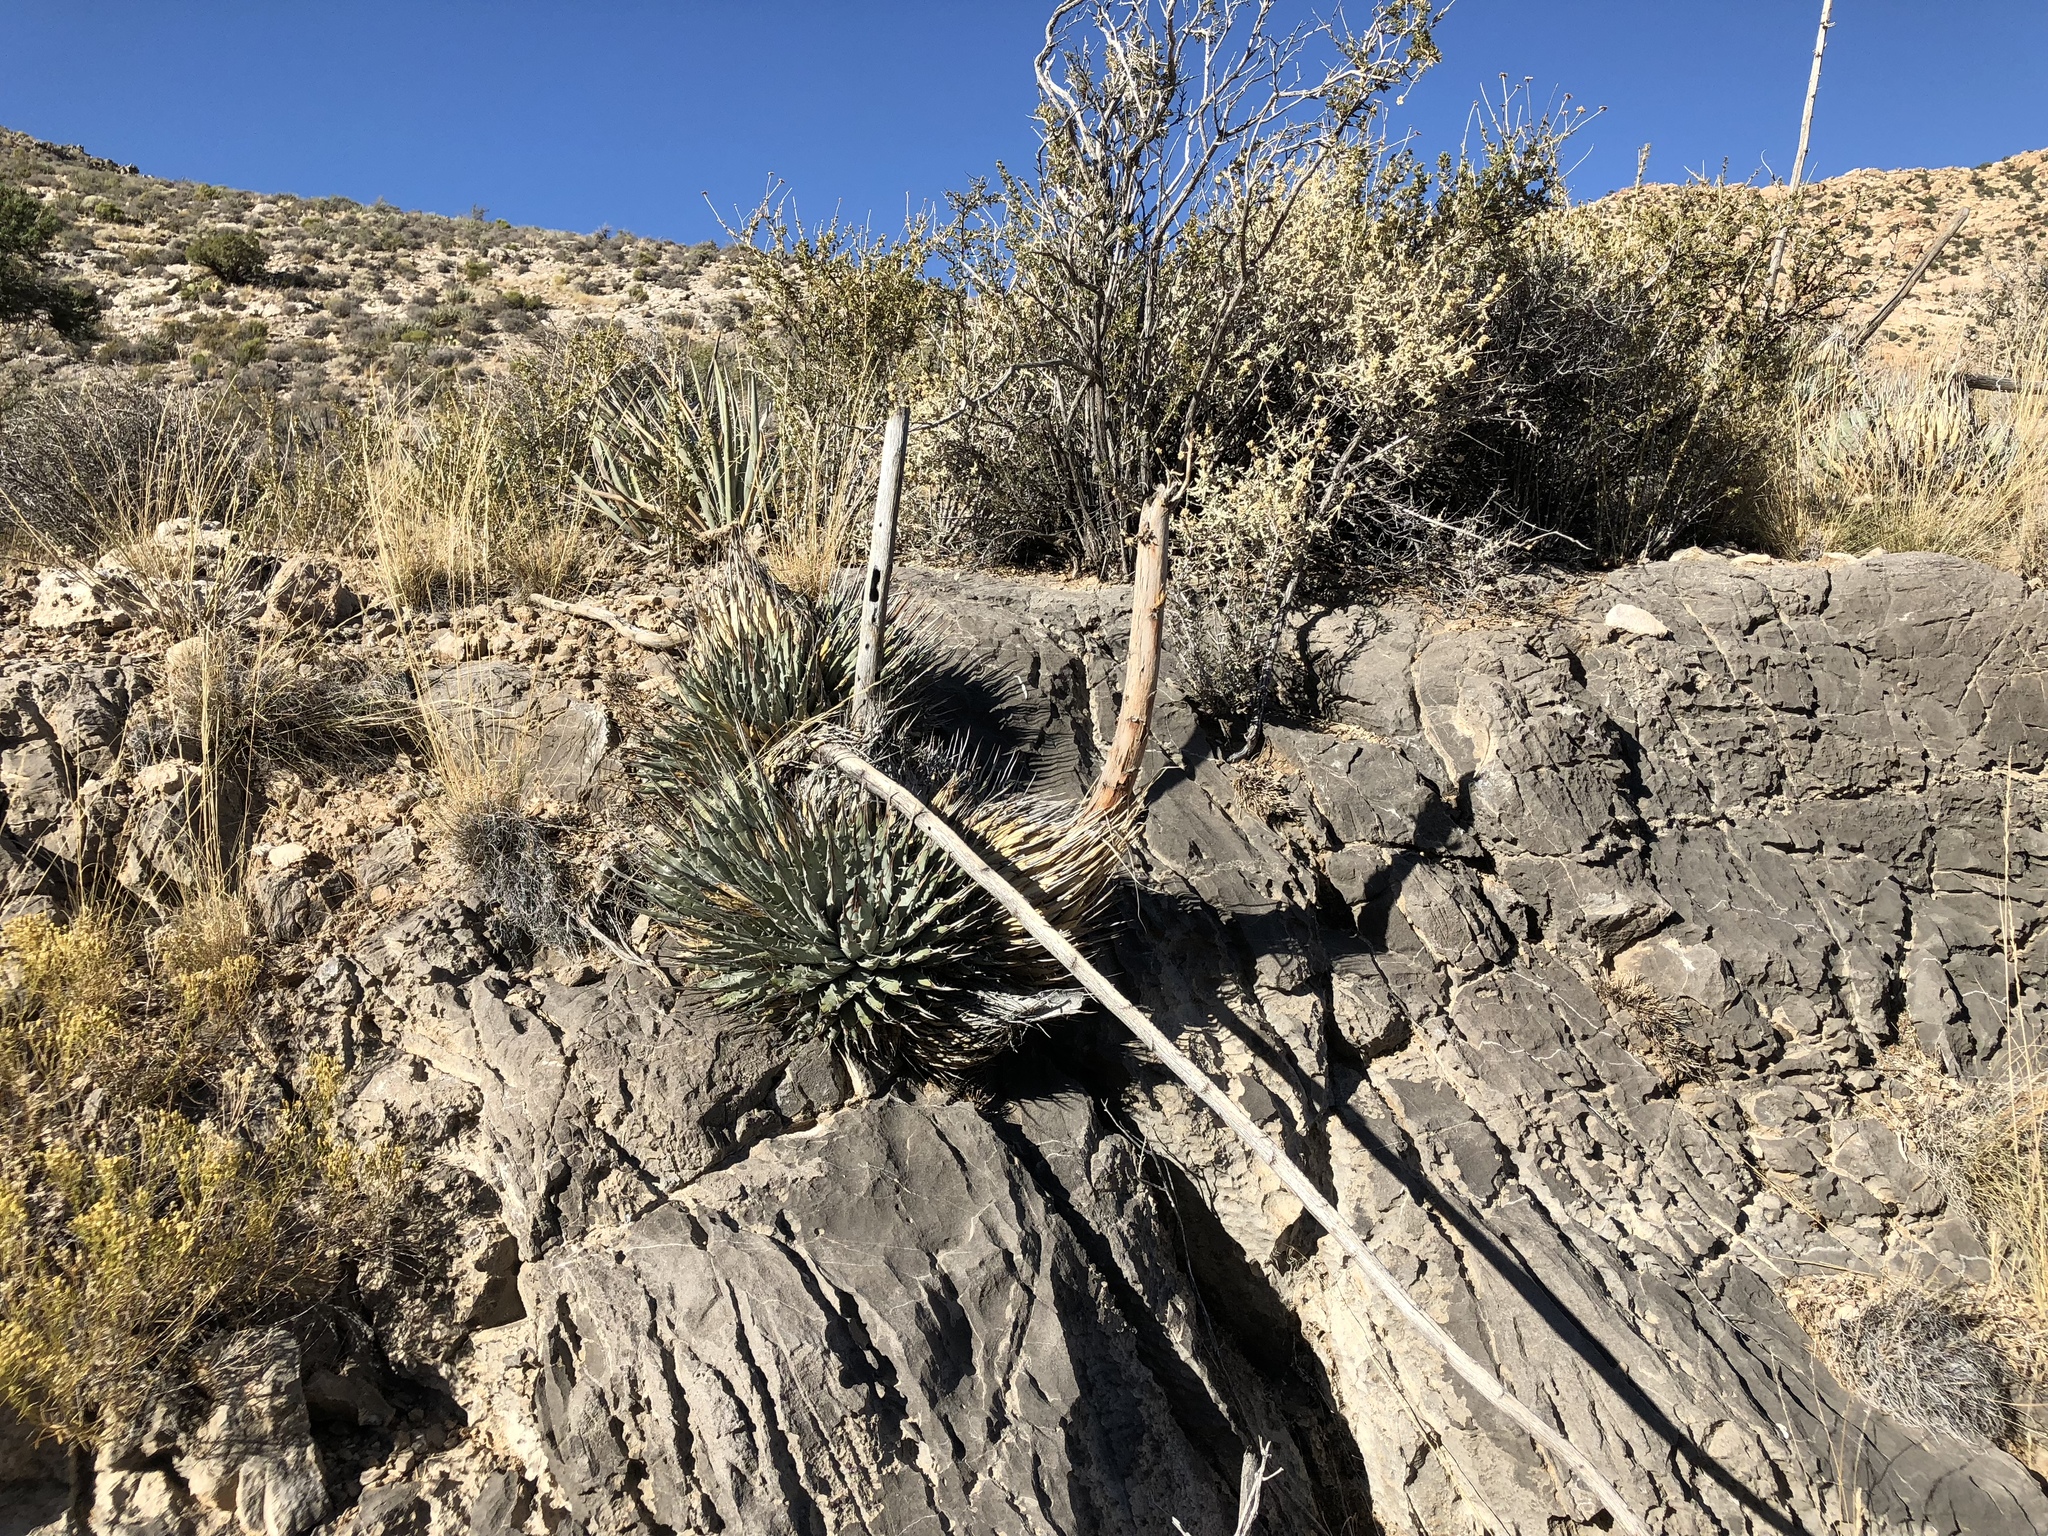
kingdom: Plantae
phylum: Tracheophyta
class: Liliopsida
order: Asparagales
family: Asparagaceae
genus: Agave
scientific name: Agave utahensis
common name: Utah agave
